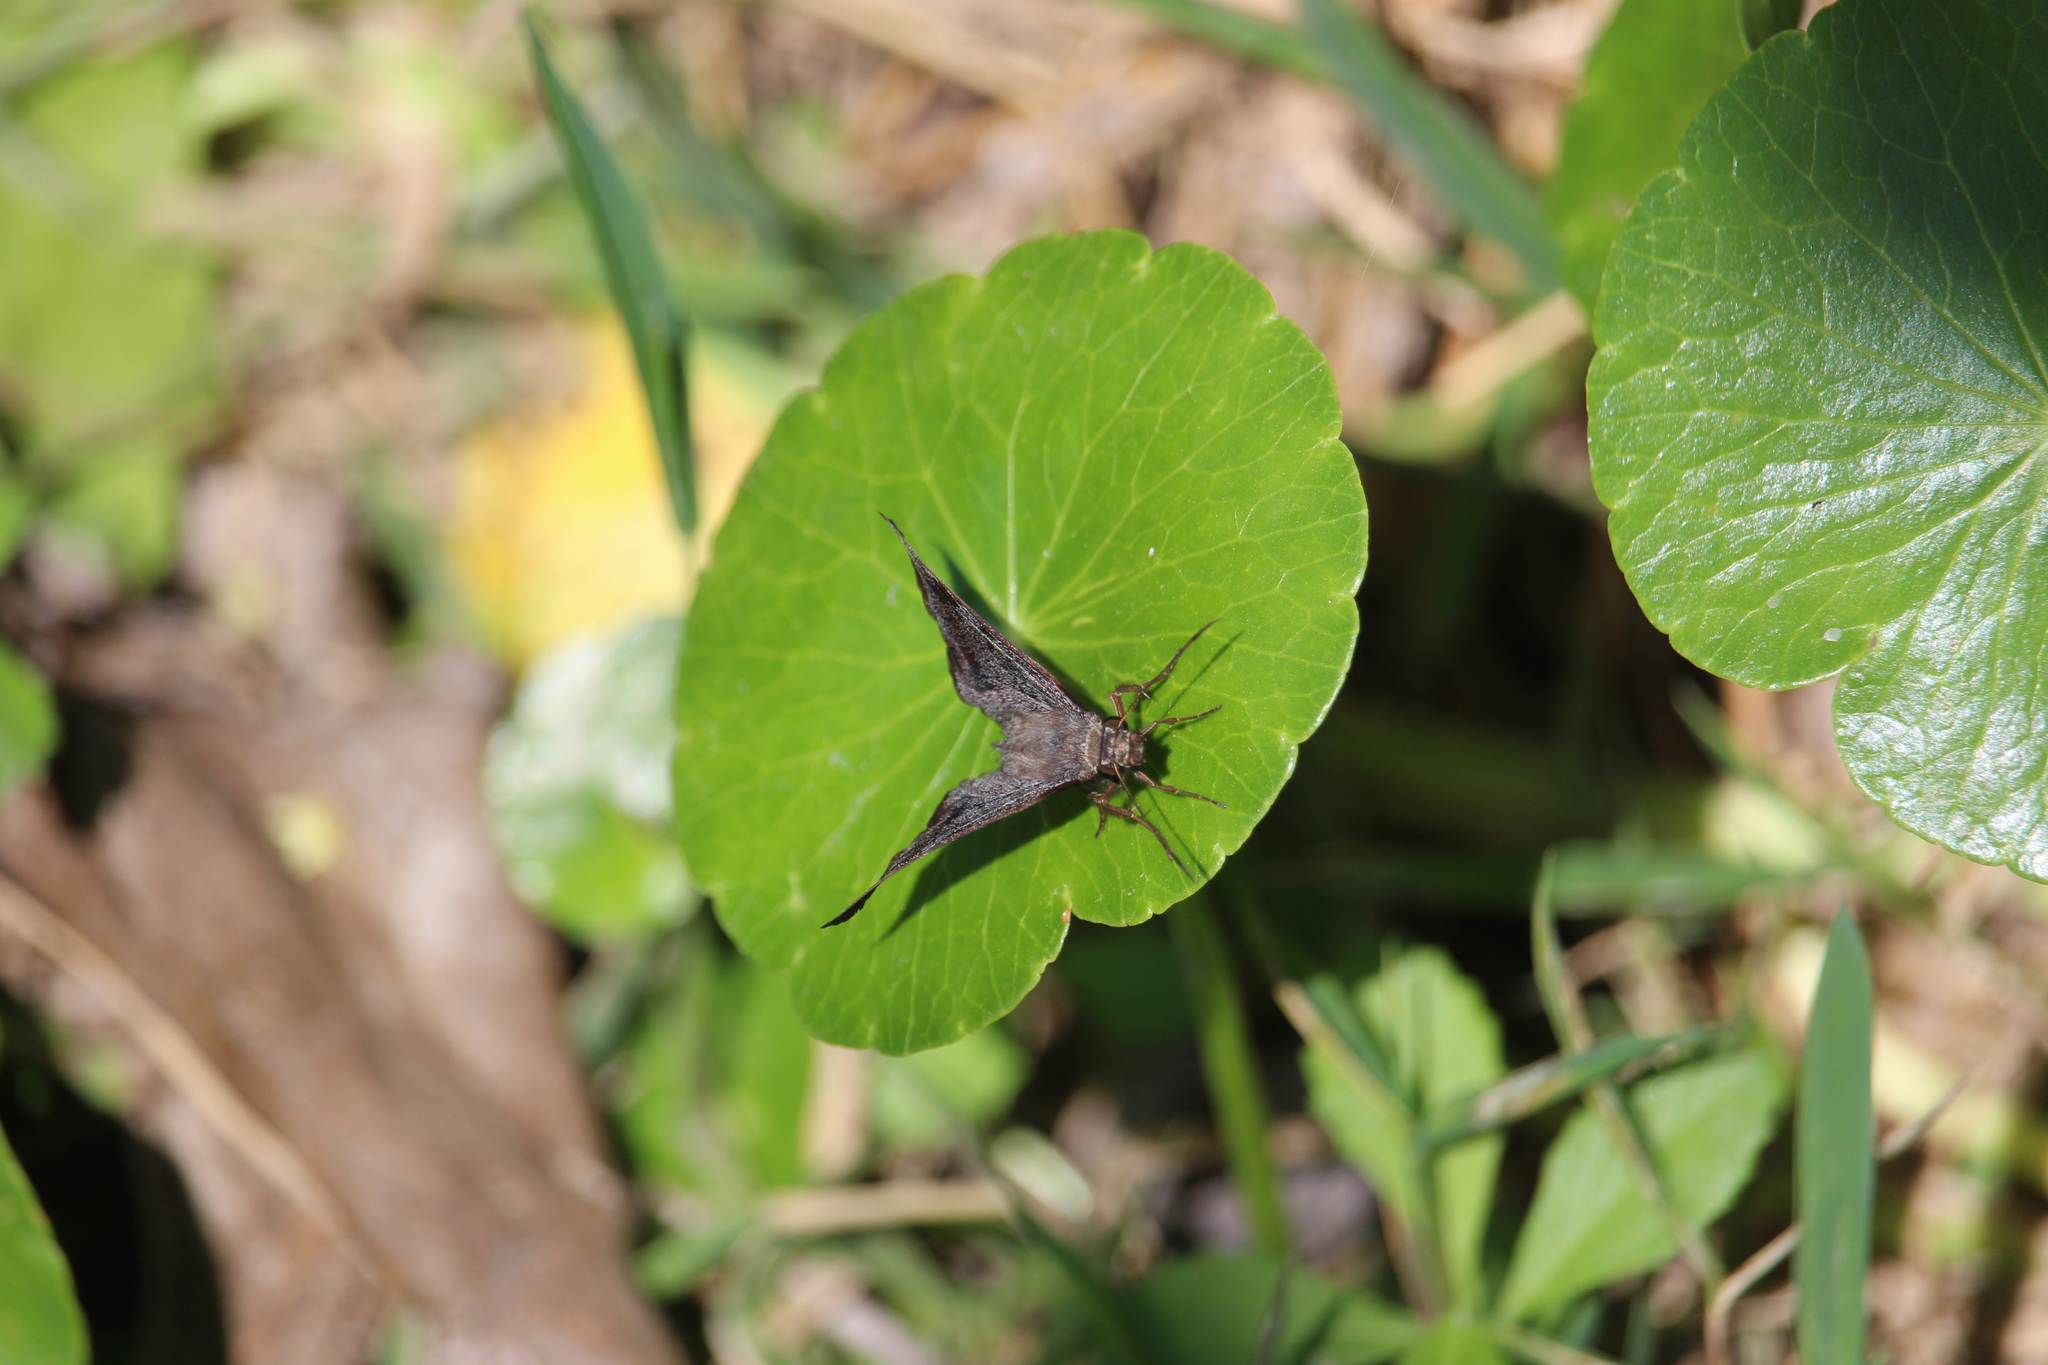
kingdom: Animalia
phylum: Arthropoda
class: Insecta
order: Lepidoptera
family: Hesperiidae
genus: Antigonus
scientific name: Antigonus erosus
